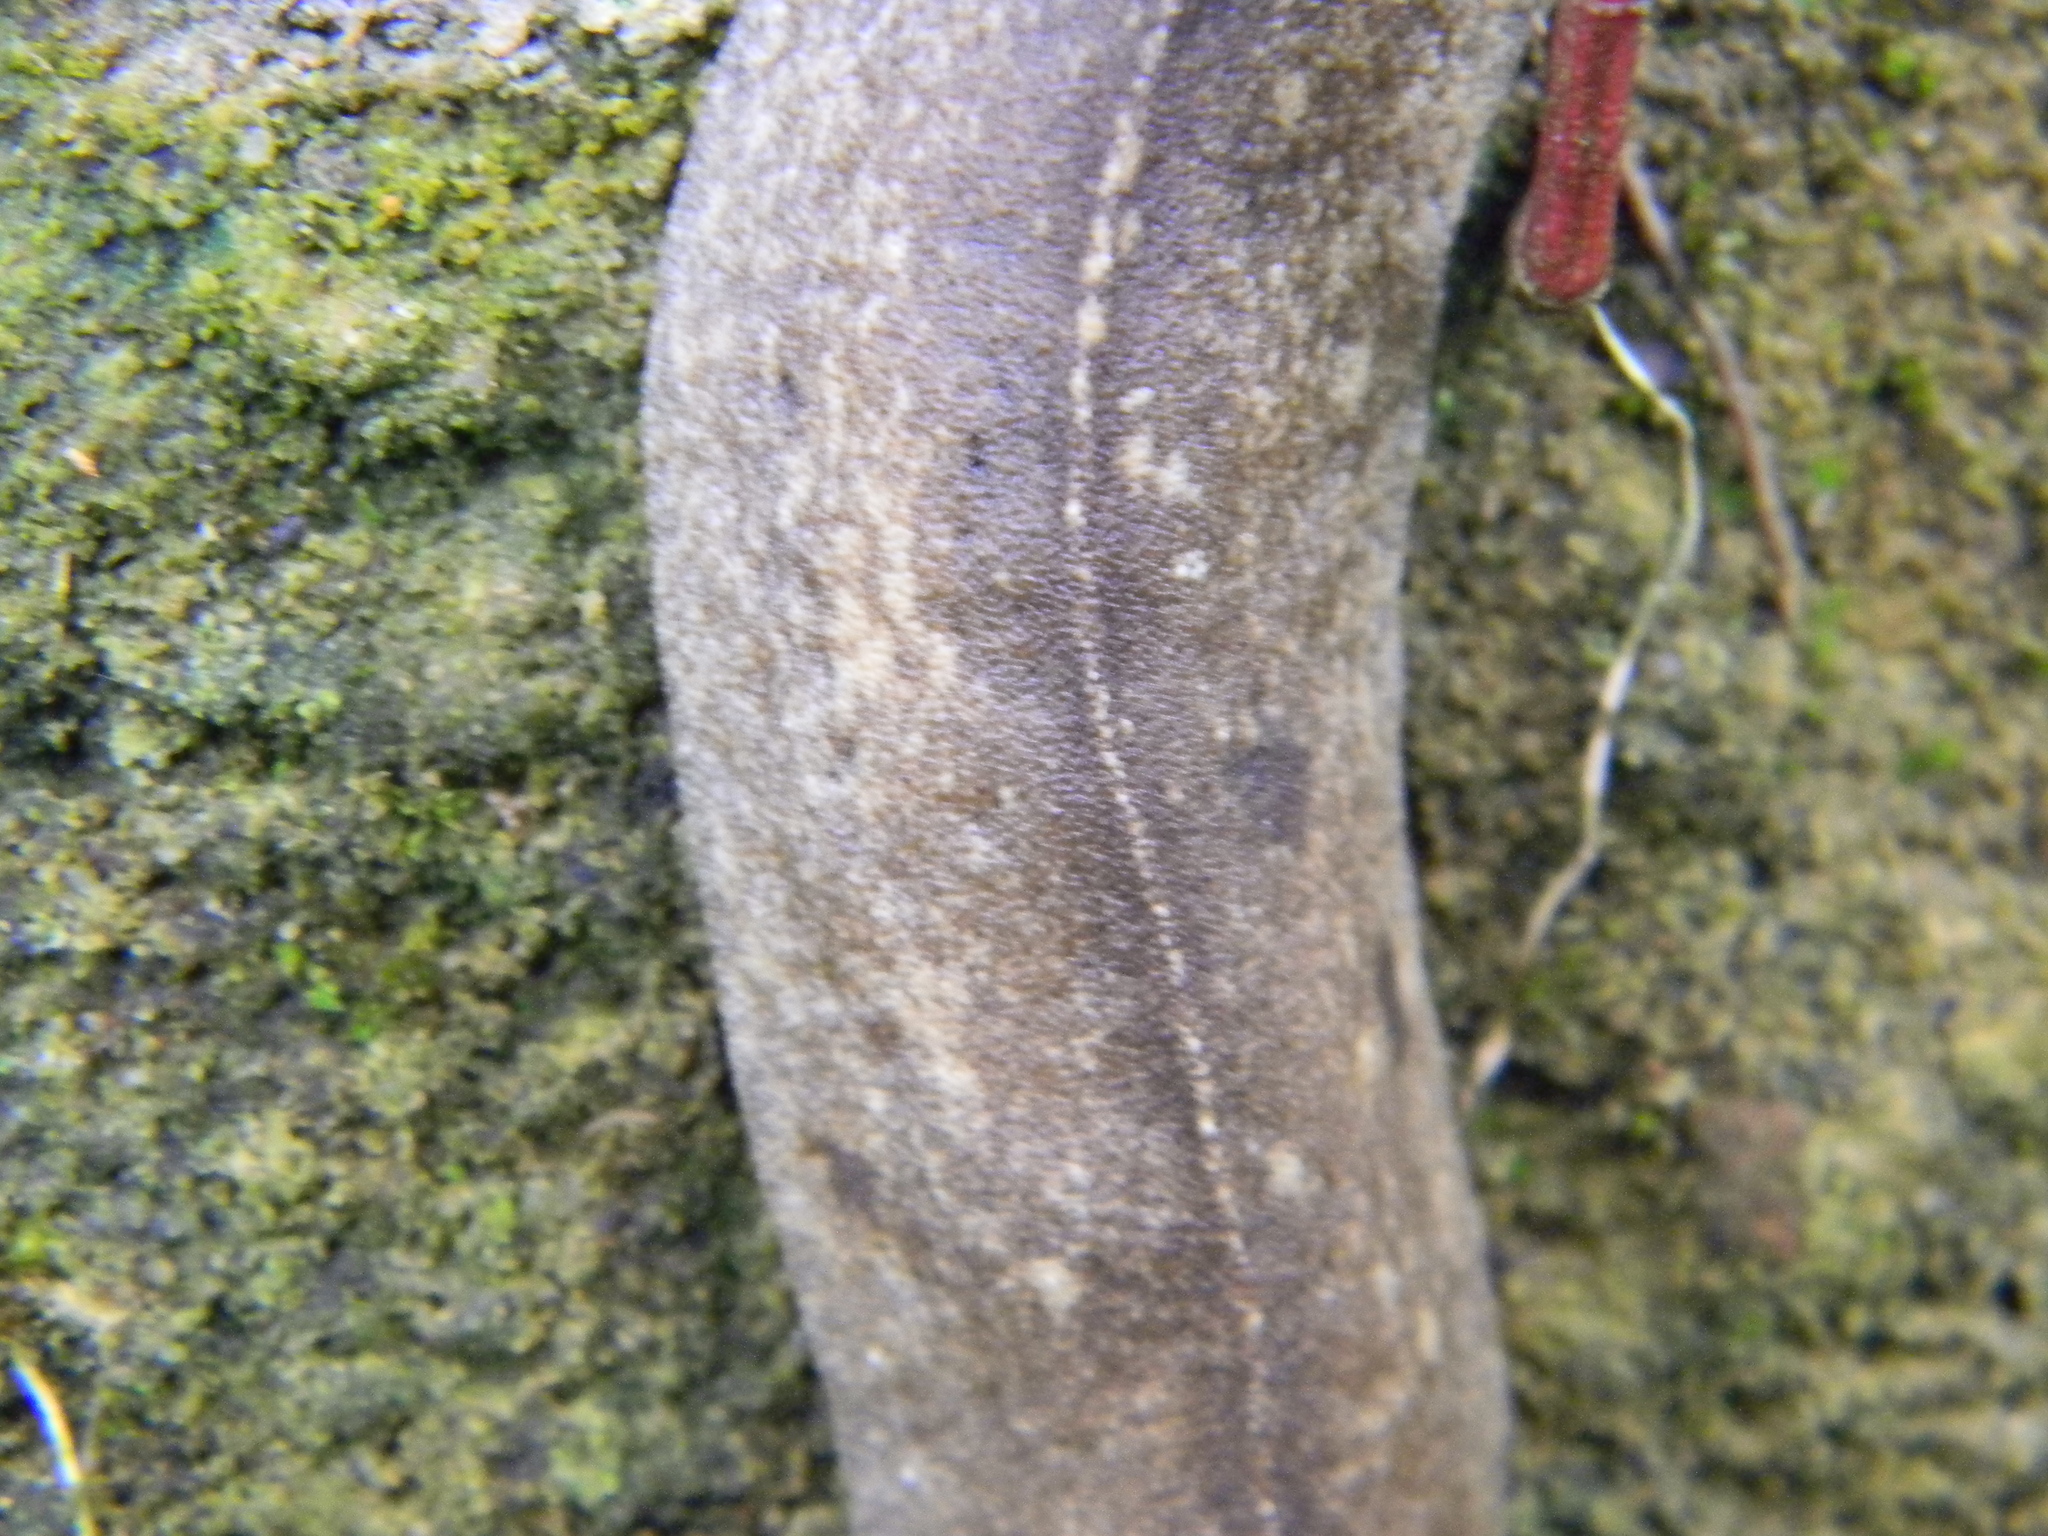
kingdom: Animalia
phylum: Mollusca
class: Gastropoda
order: Systellommatophora
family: Veronicellidae
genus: Colosius
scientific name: Colosius confusus
